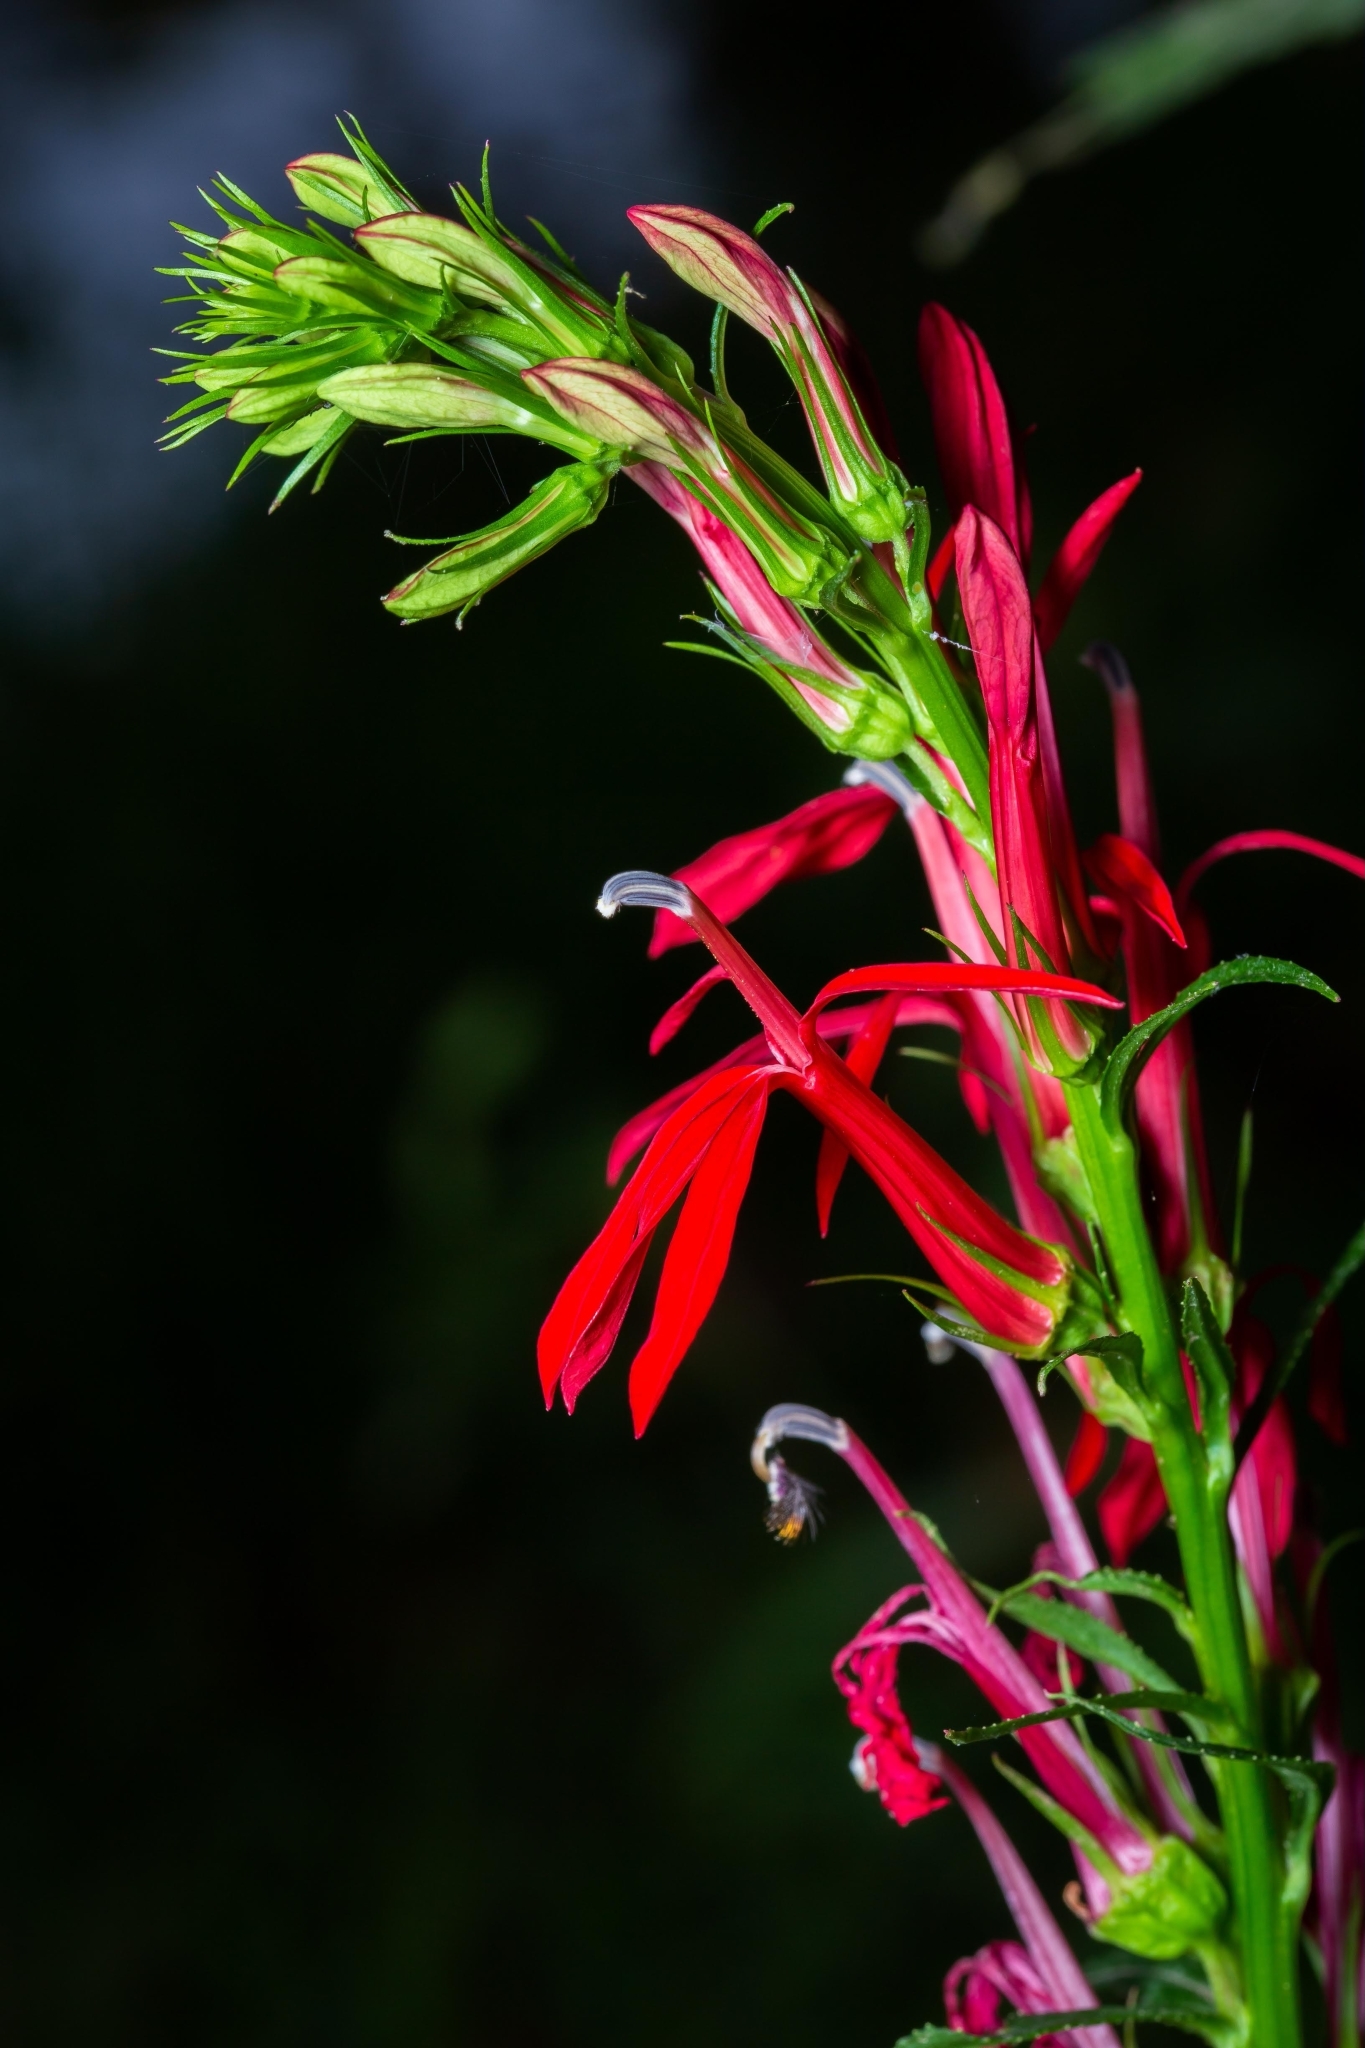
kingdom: Plantae
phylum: Tracheophyta
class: Magnoliopsida
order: Asterales
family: Campanulaceae
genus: Lobelia
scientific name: Lobelia cardinalis
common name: Cardinal flower
